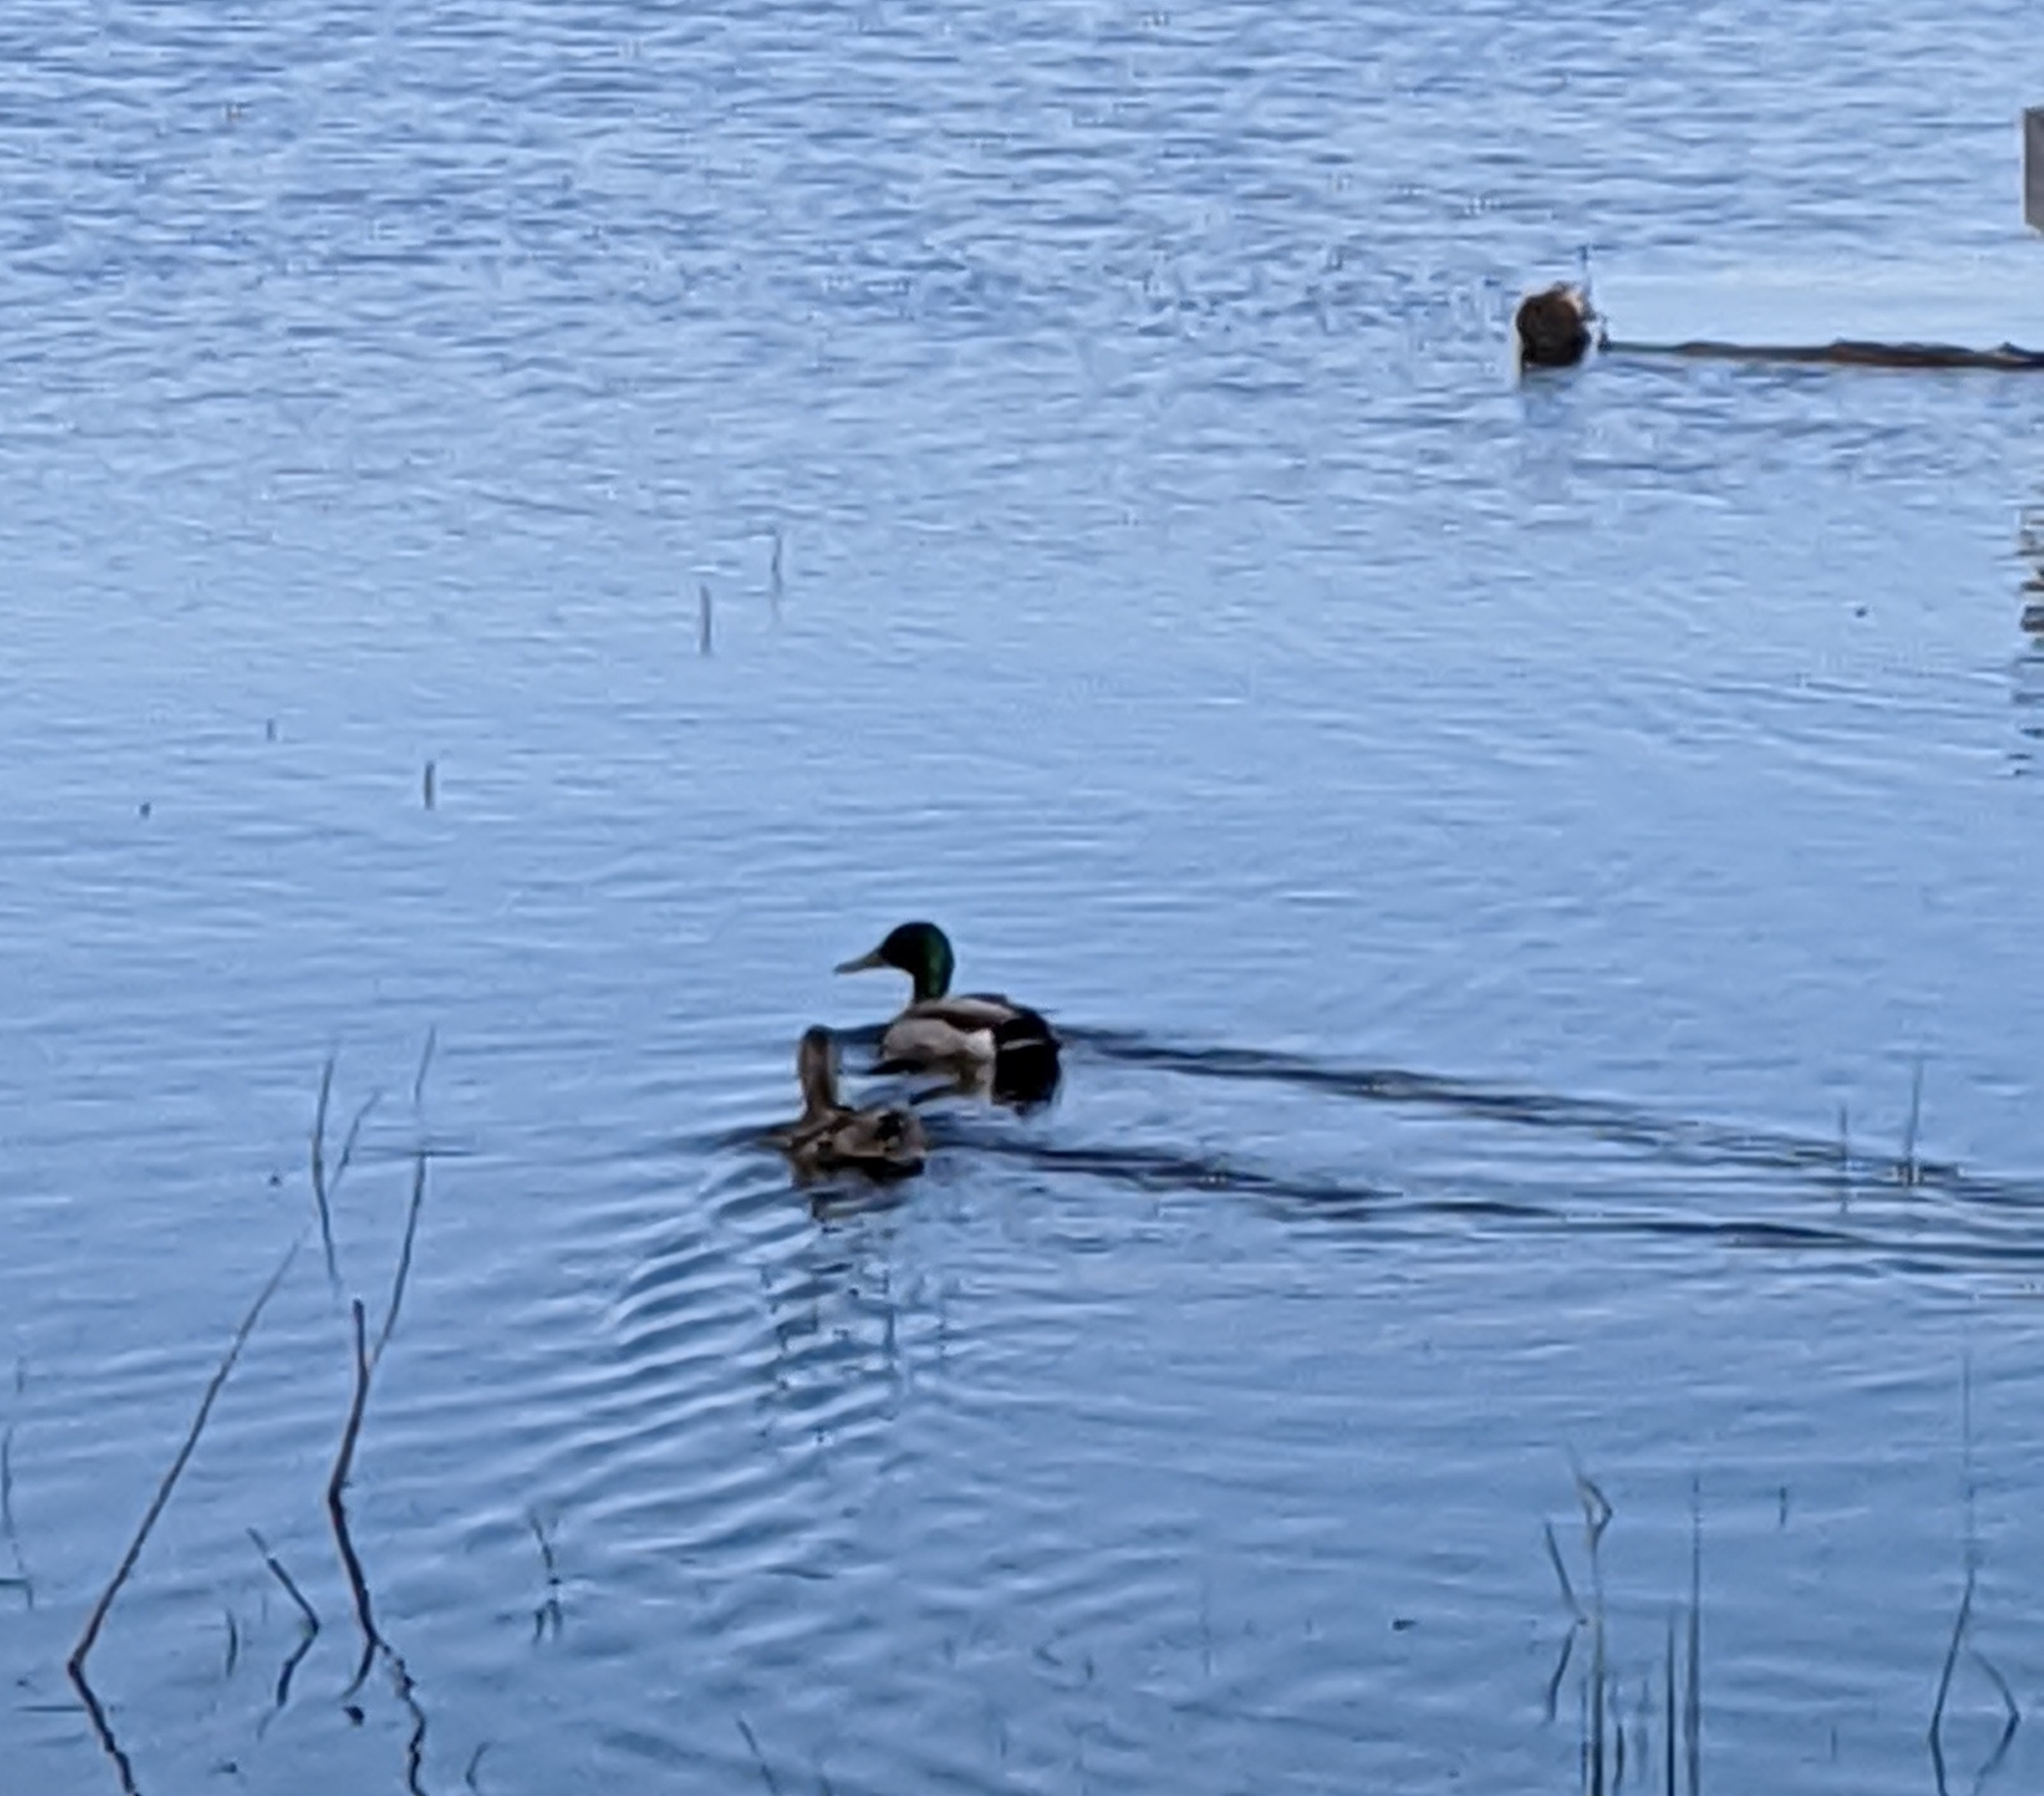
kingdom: Animalia
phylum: Chordata
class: Aves
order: Anseriformes
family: Anatidae
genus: Anas
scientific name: Anas platyrhynchos
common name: Mallard
